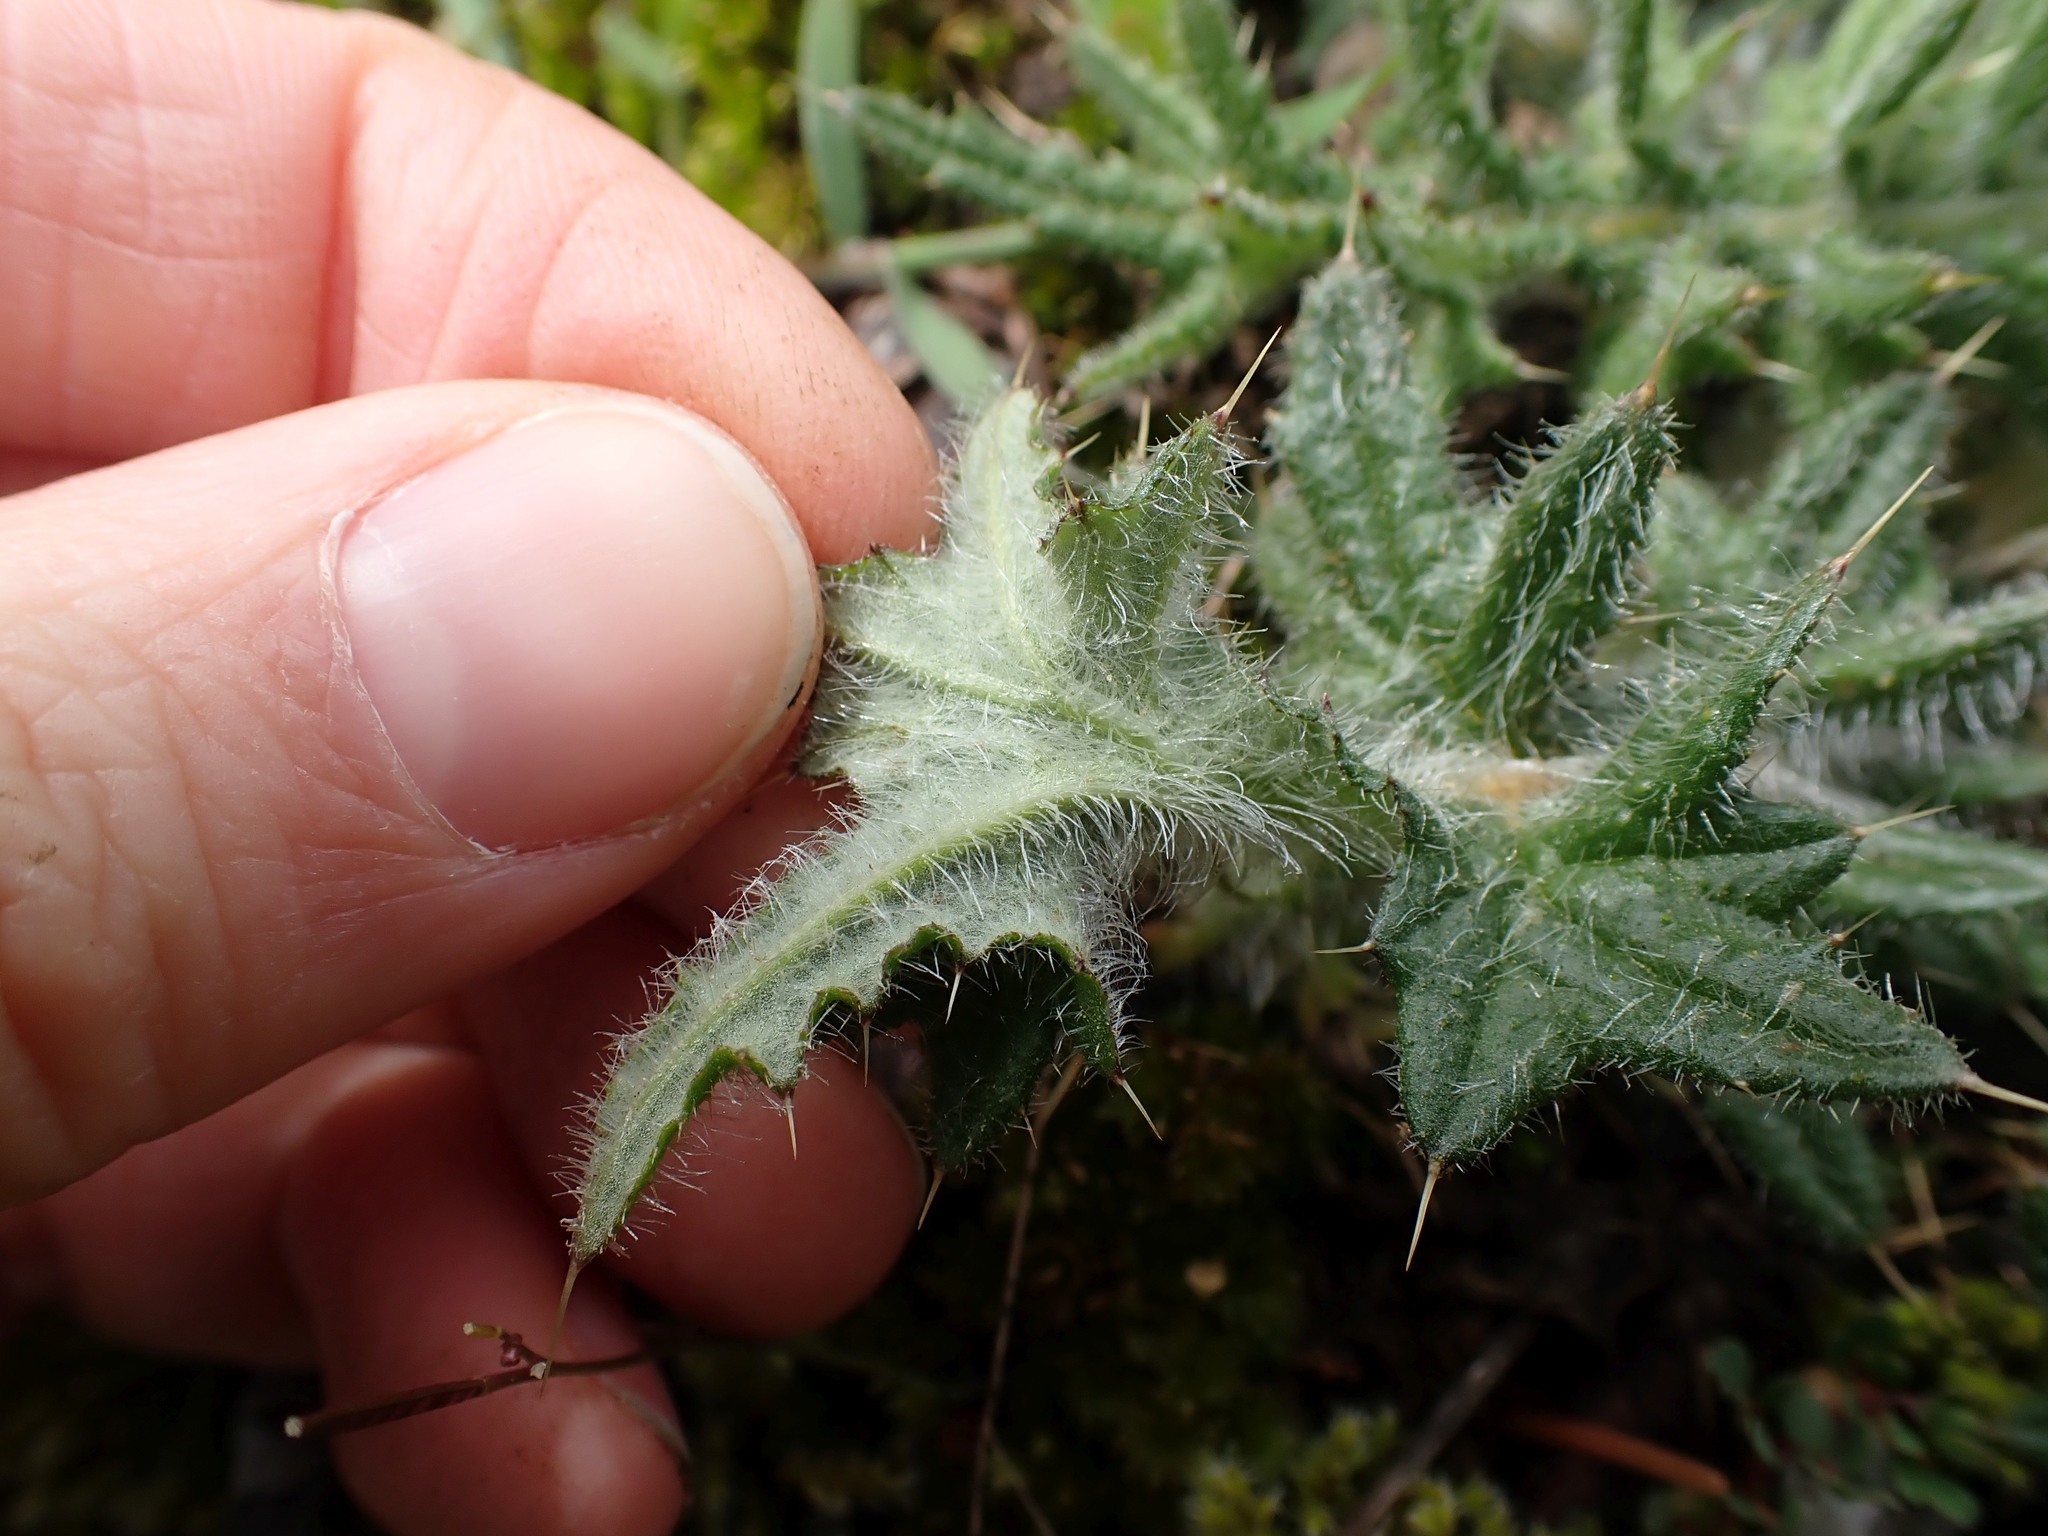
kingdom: Plantae
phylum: Tracheophyta
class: Magnoliopsida
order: Asterales
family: Asteraceae
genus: Cirsium
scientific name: Cirsium vulgare
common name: Bull thistle
